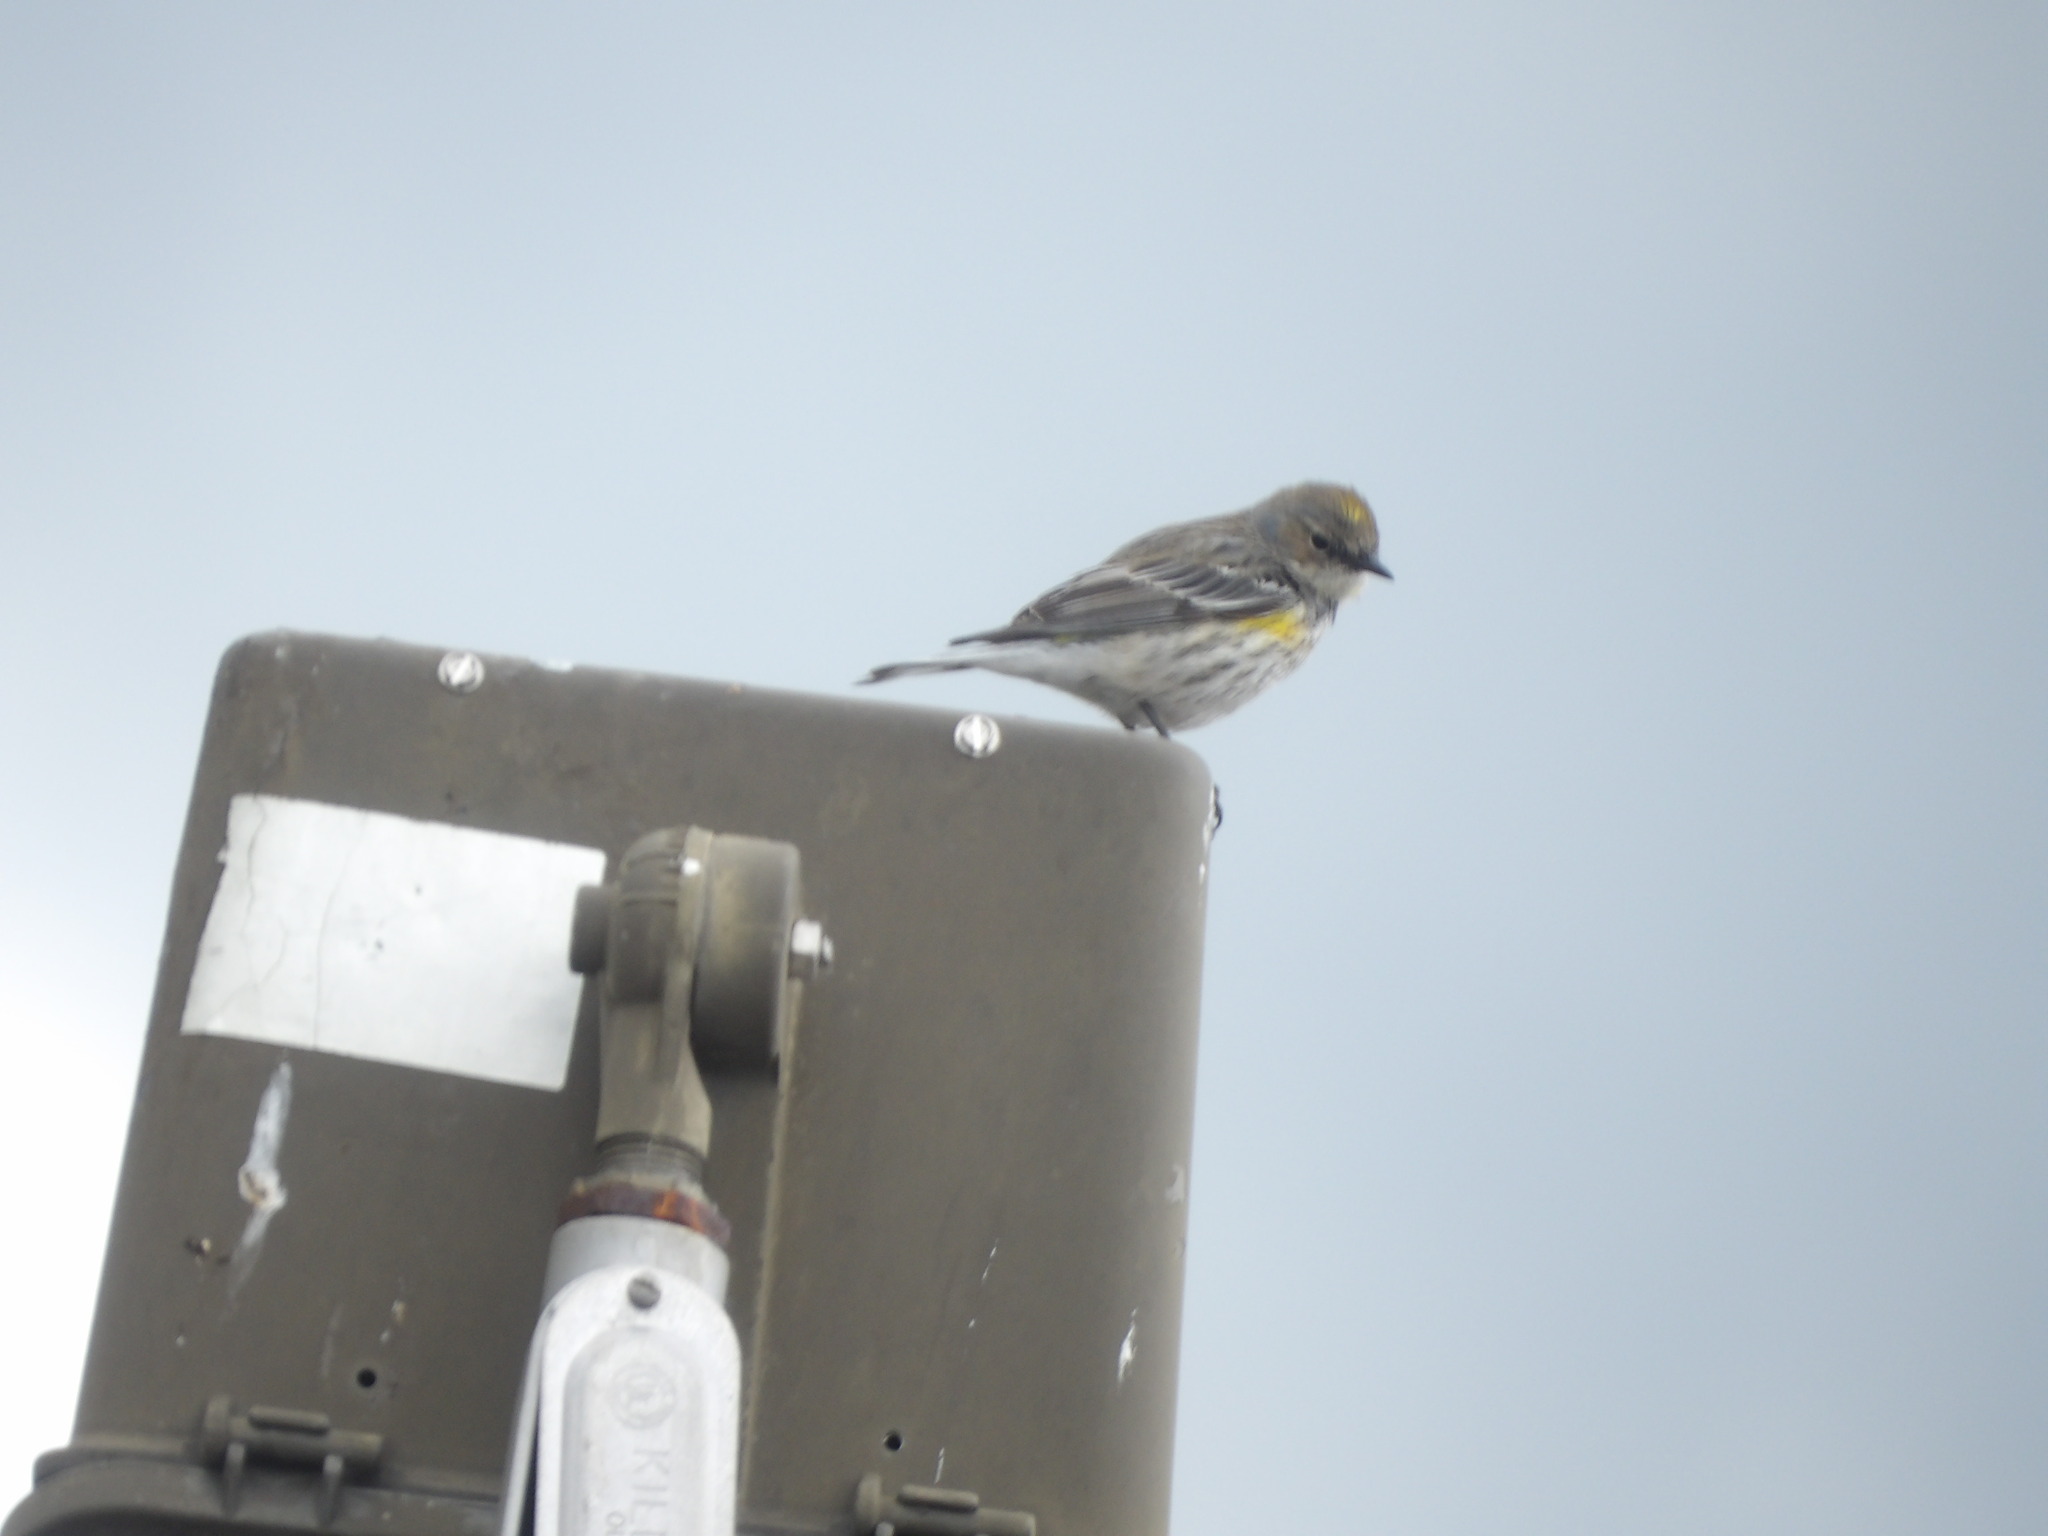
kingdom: Animalia
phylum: Chordata
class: Aves
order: Passeriformes
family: Parulidae
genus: Setophaga
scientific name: Setophaga coronata
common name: Myrtle warbler
